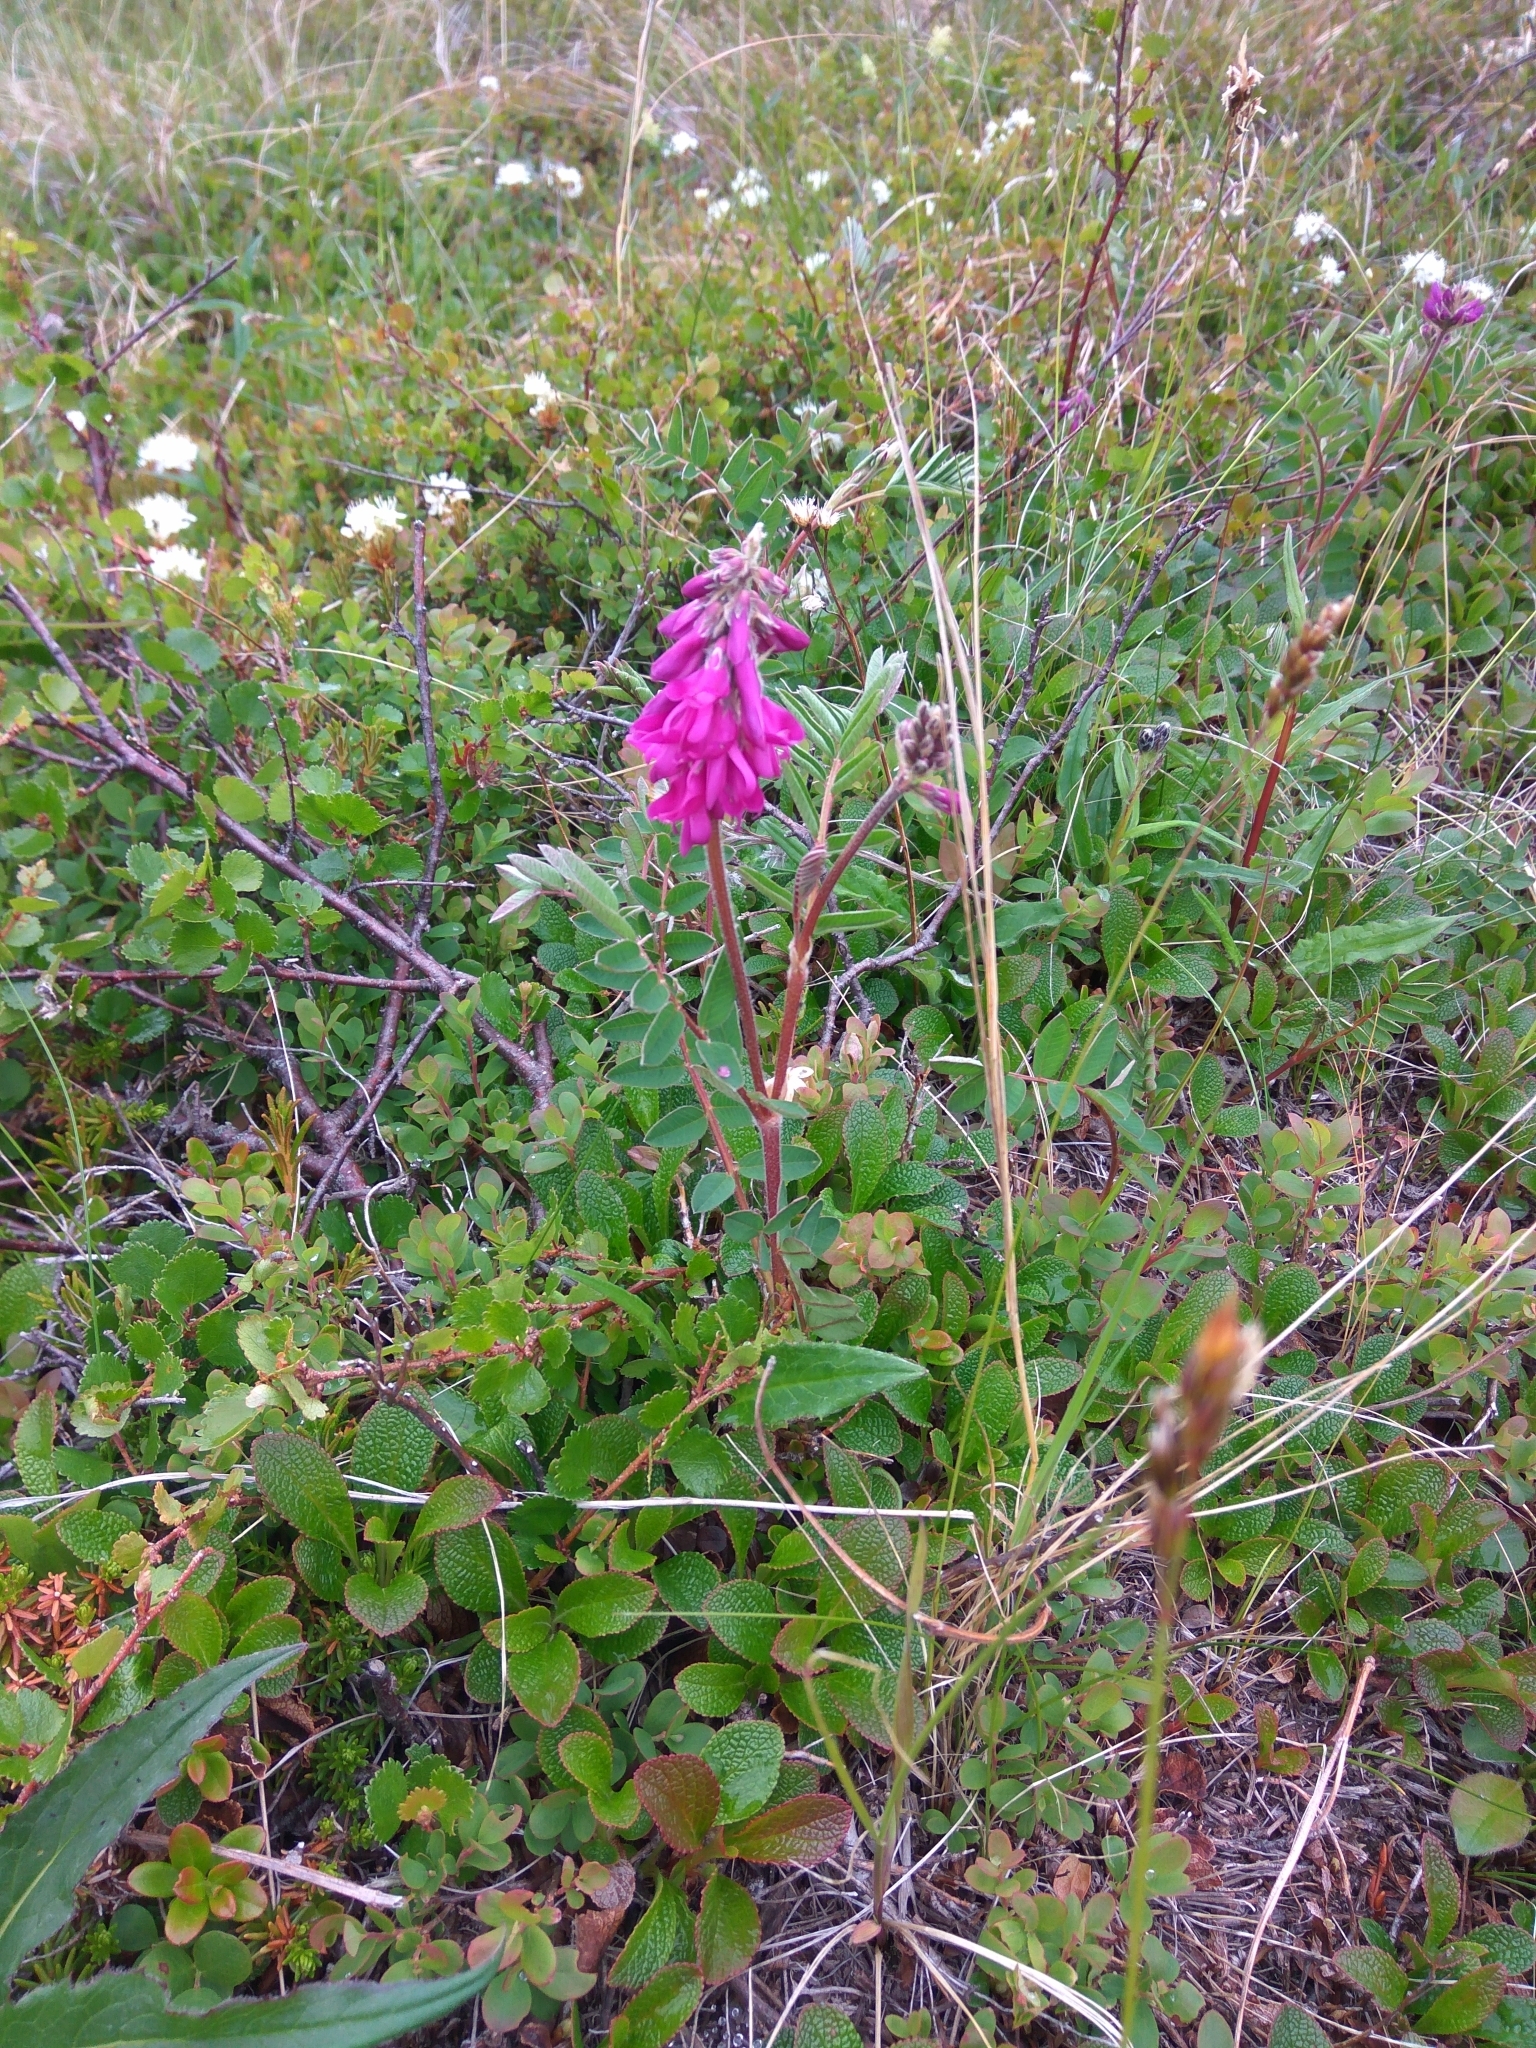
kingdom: Plantae
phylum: Tracheophyta
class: Magnoliopsida
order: Fabales
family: Fabaceae
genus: Hedysarum
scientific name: Hedysarum hedysaroides
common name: Alpine french-honeysuckle
